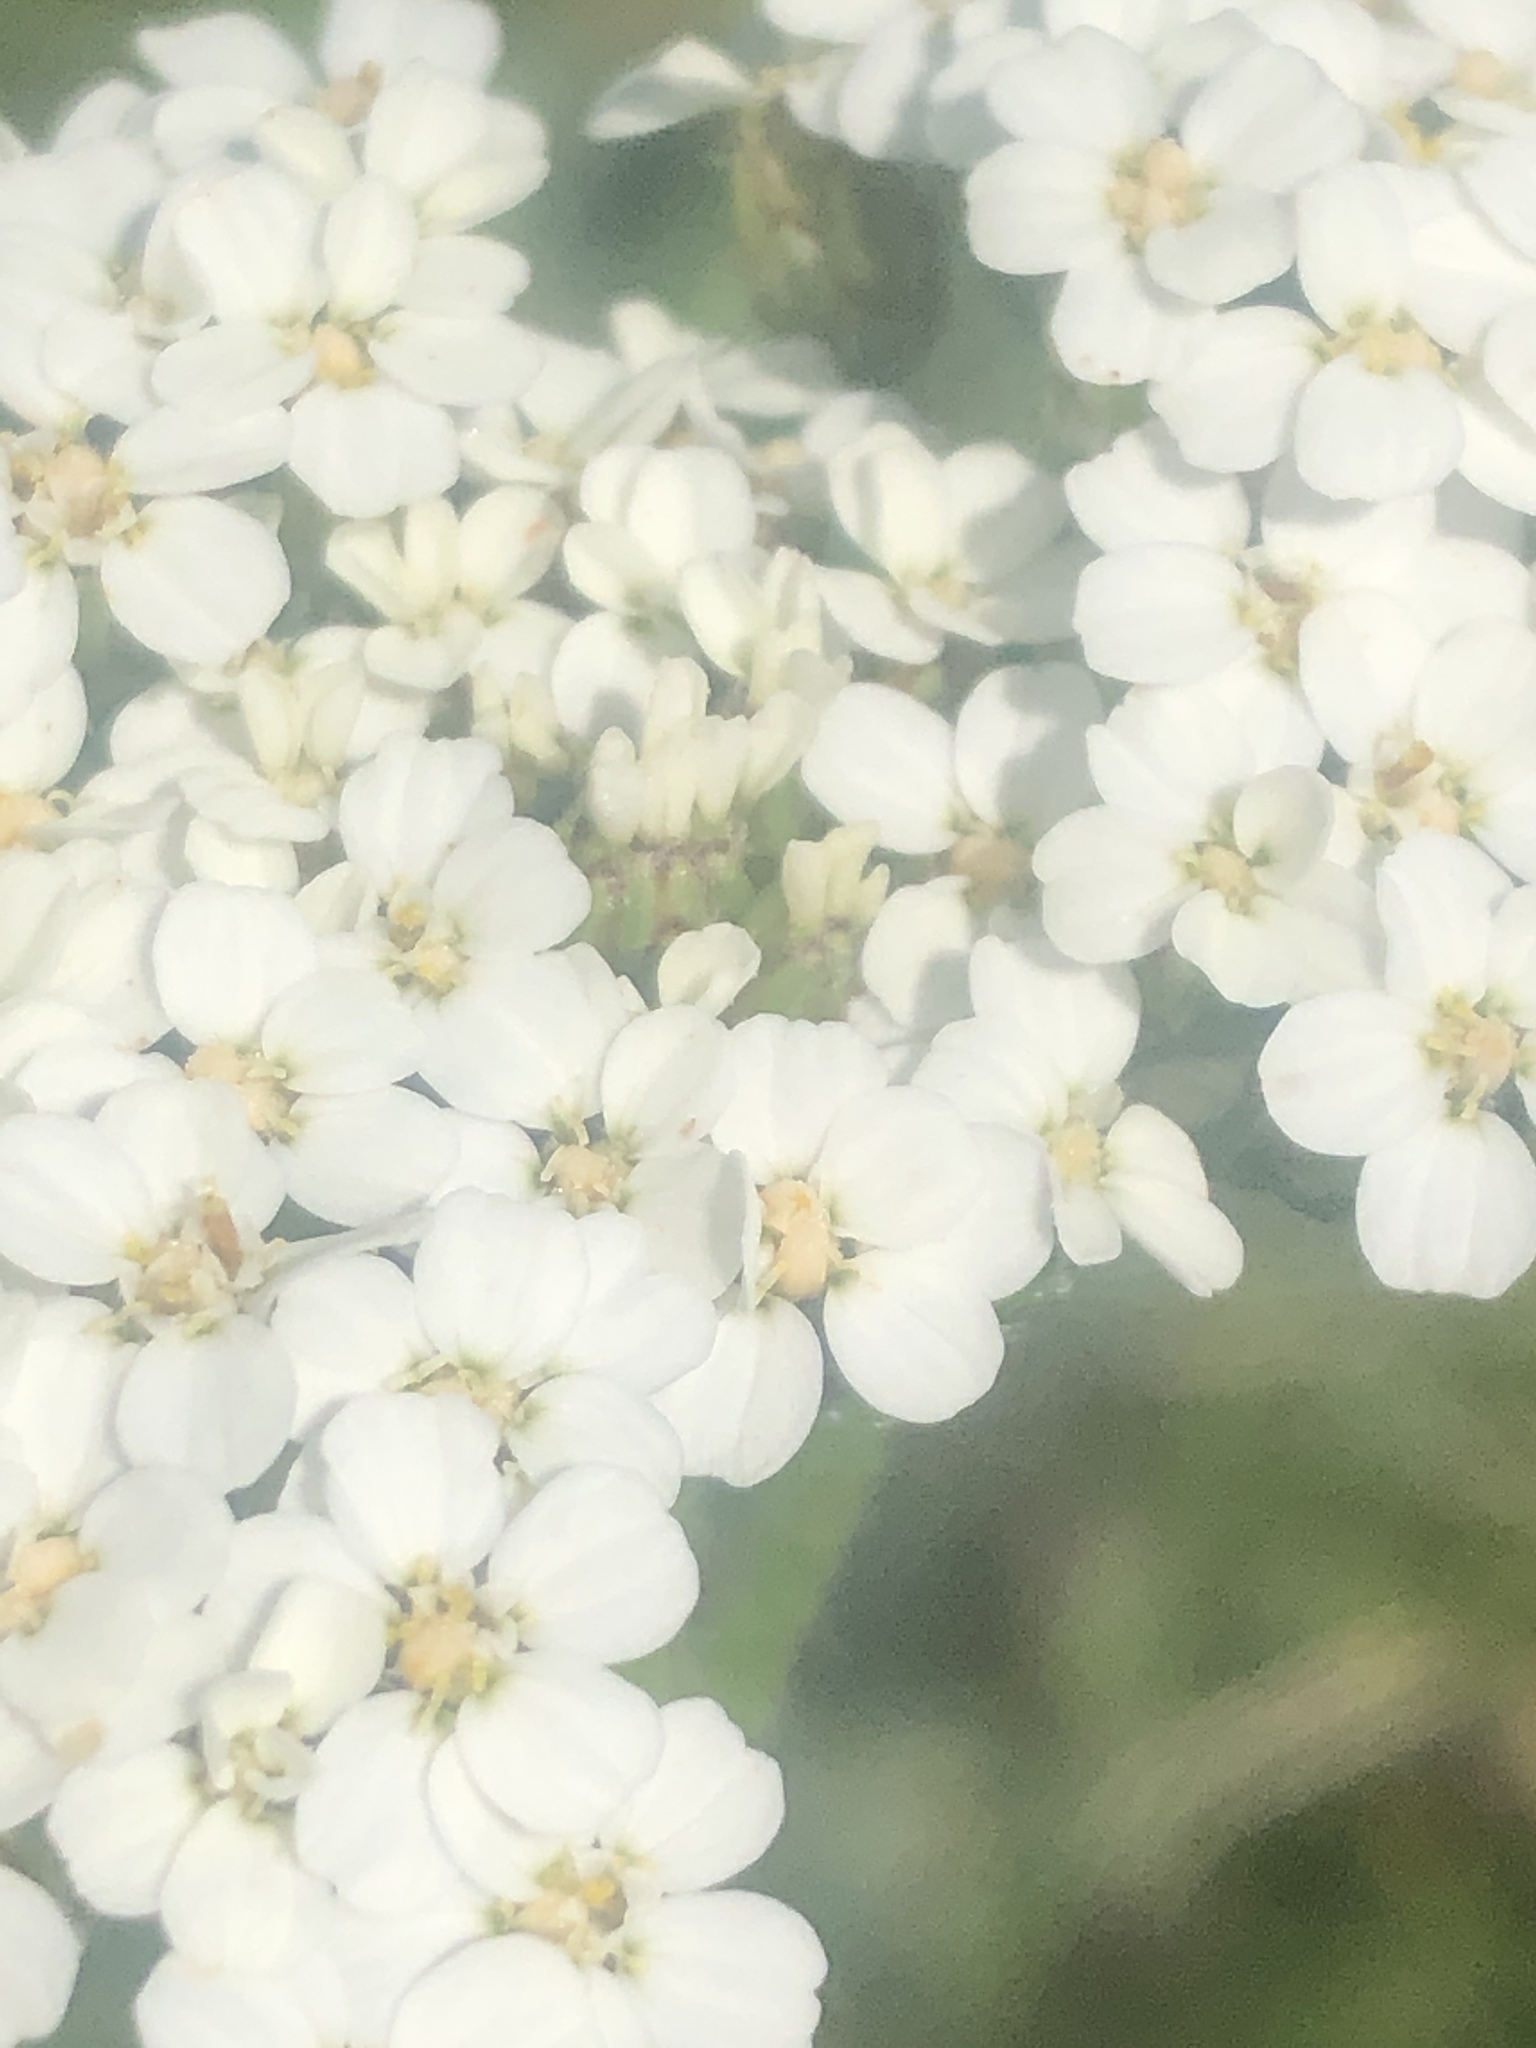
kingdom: Plantae
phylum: Tracheophyta
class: Magnoliopsida
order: Asterales
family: Asteraceae
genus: Achillea
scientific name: Achillea millefolium
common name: Yarrow
